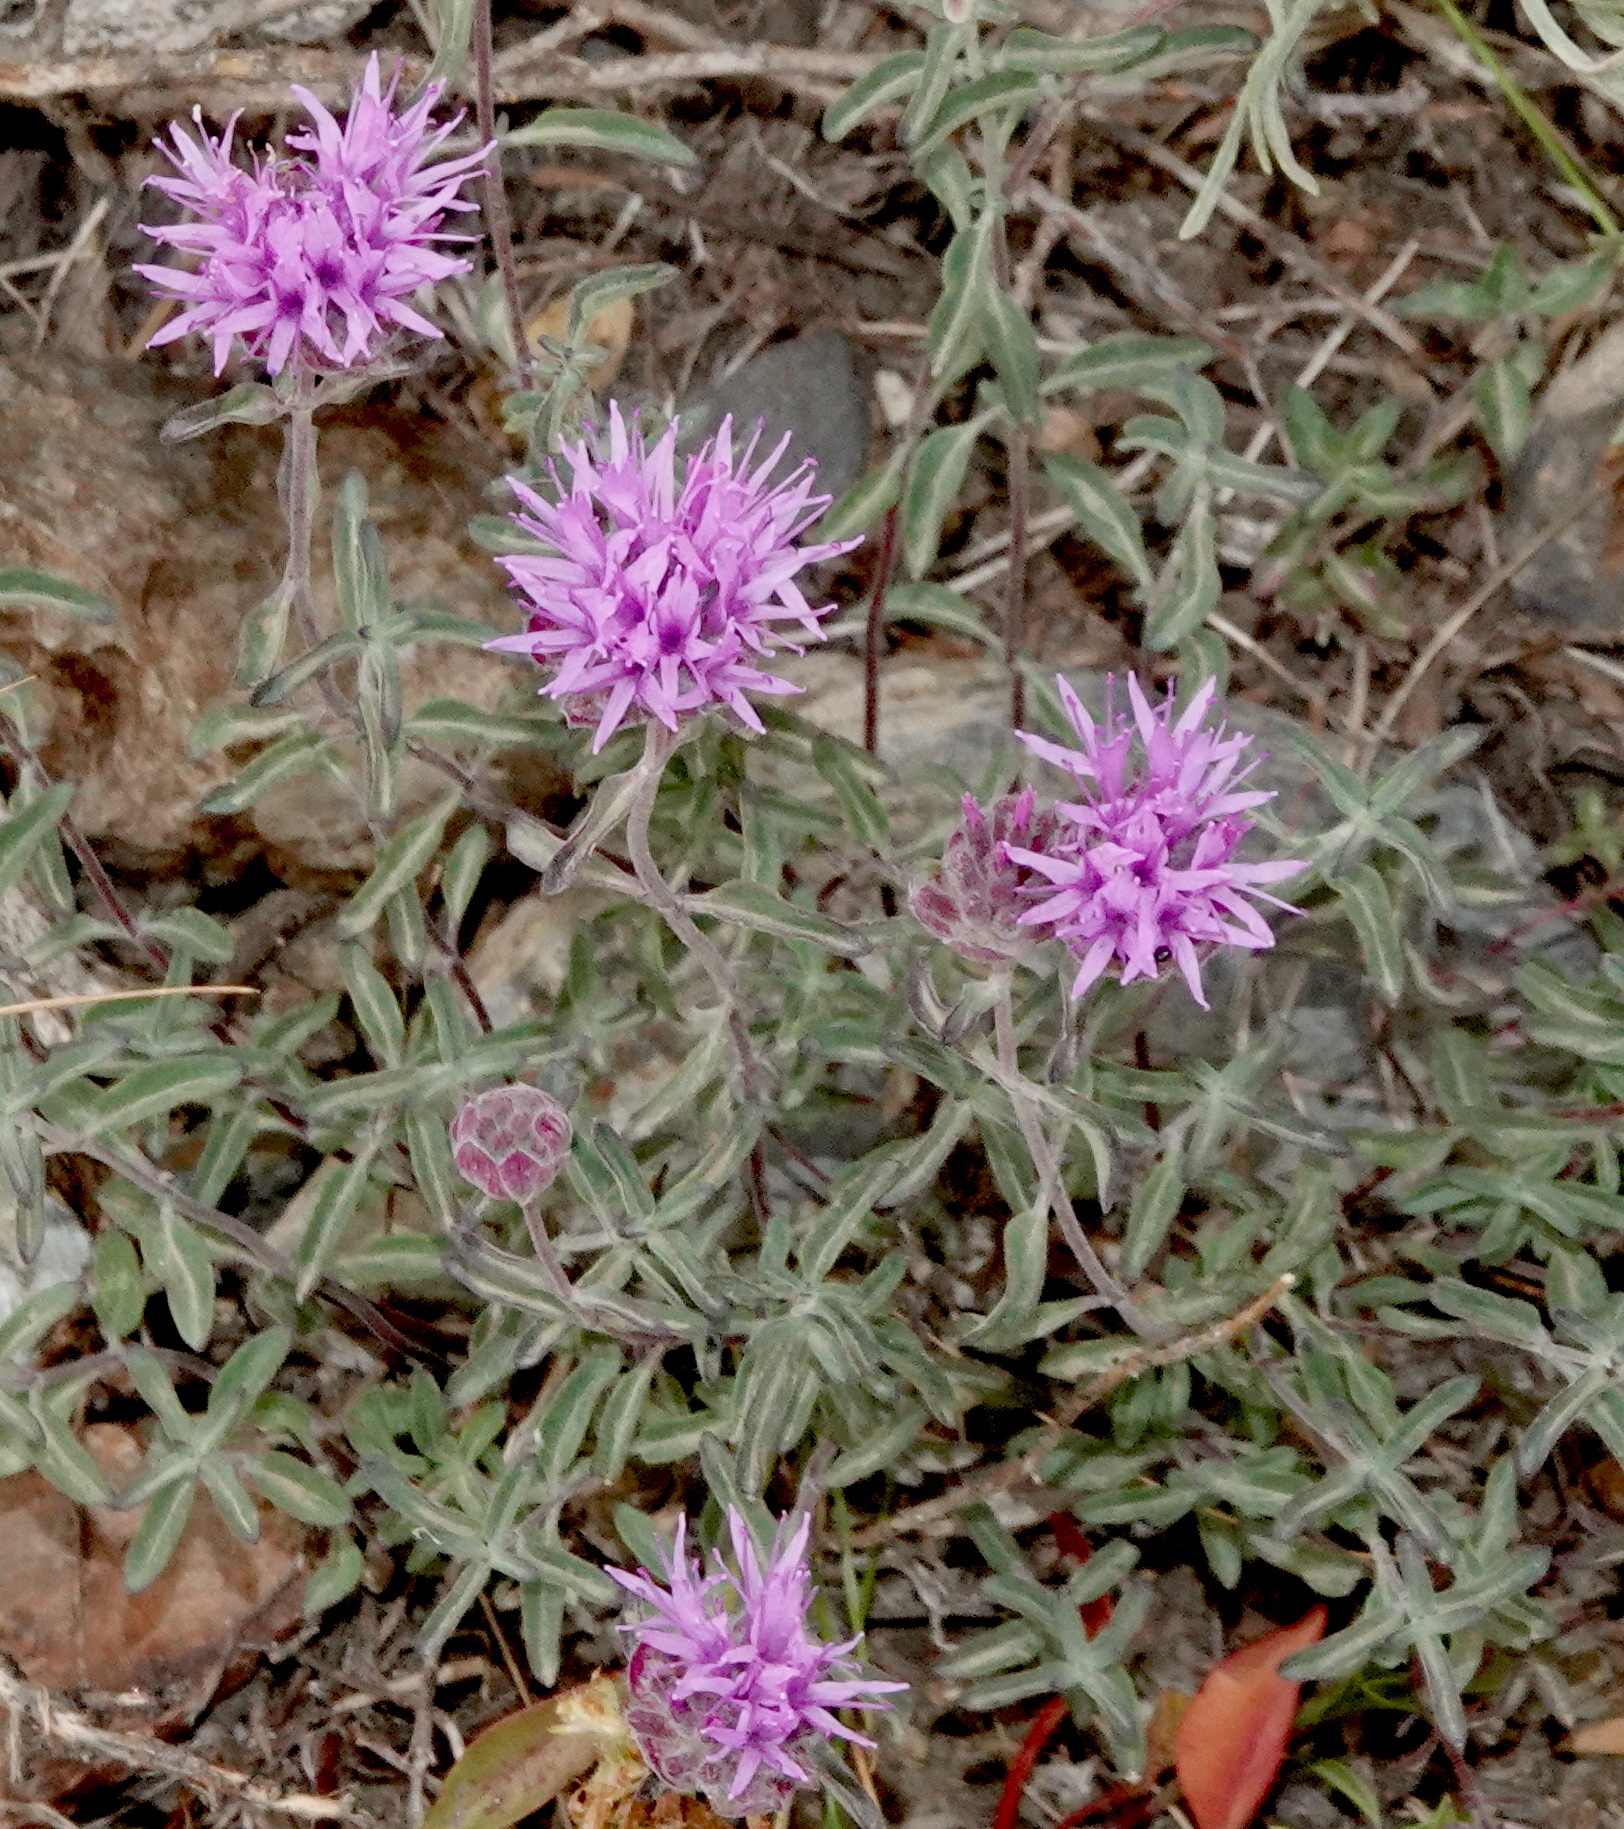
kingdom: Plantae
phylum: Tracheophyta
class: Magnoliopsida
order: Lamiales
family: Lamiaceae
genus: Monardella
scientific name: Monardella odoratissima
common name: Pacific monardella
